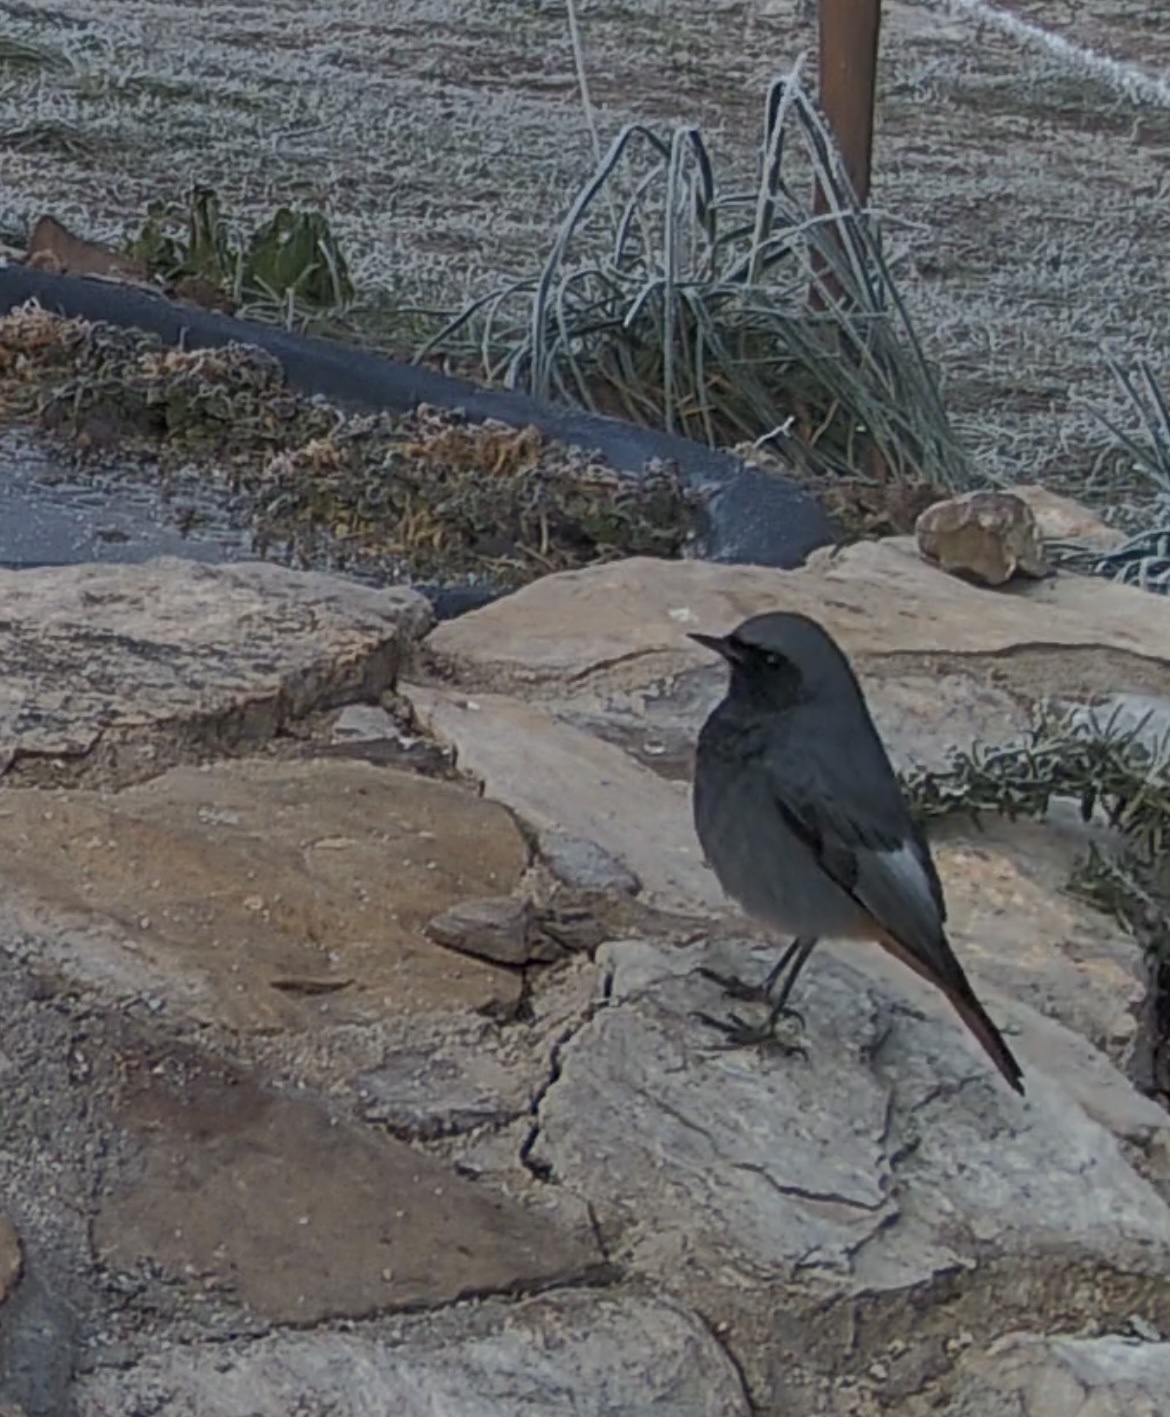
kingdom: Animalia
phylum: Chordata
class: Aves
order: Passeriformes
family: Muscicapidae
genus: Phoenicurus
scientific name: Phoenicurus ochruros
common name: Black redstart
